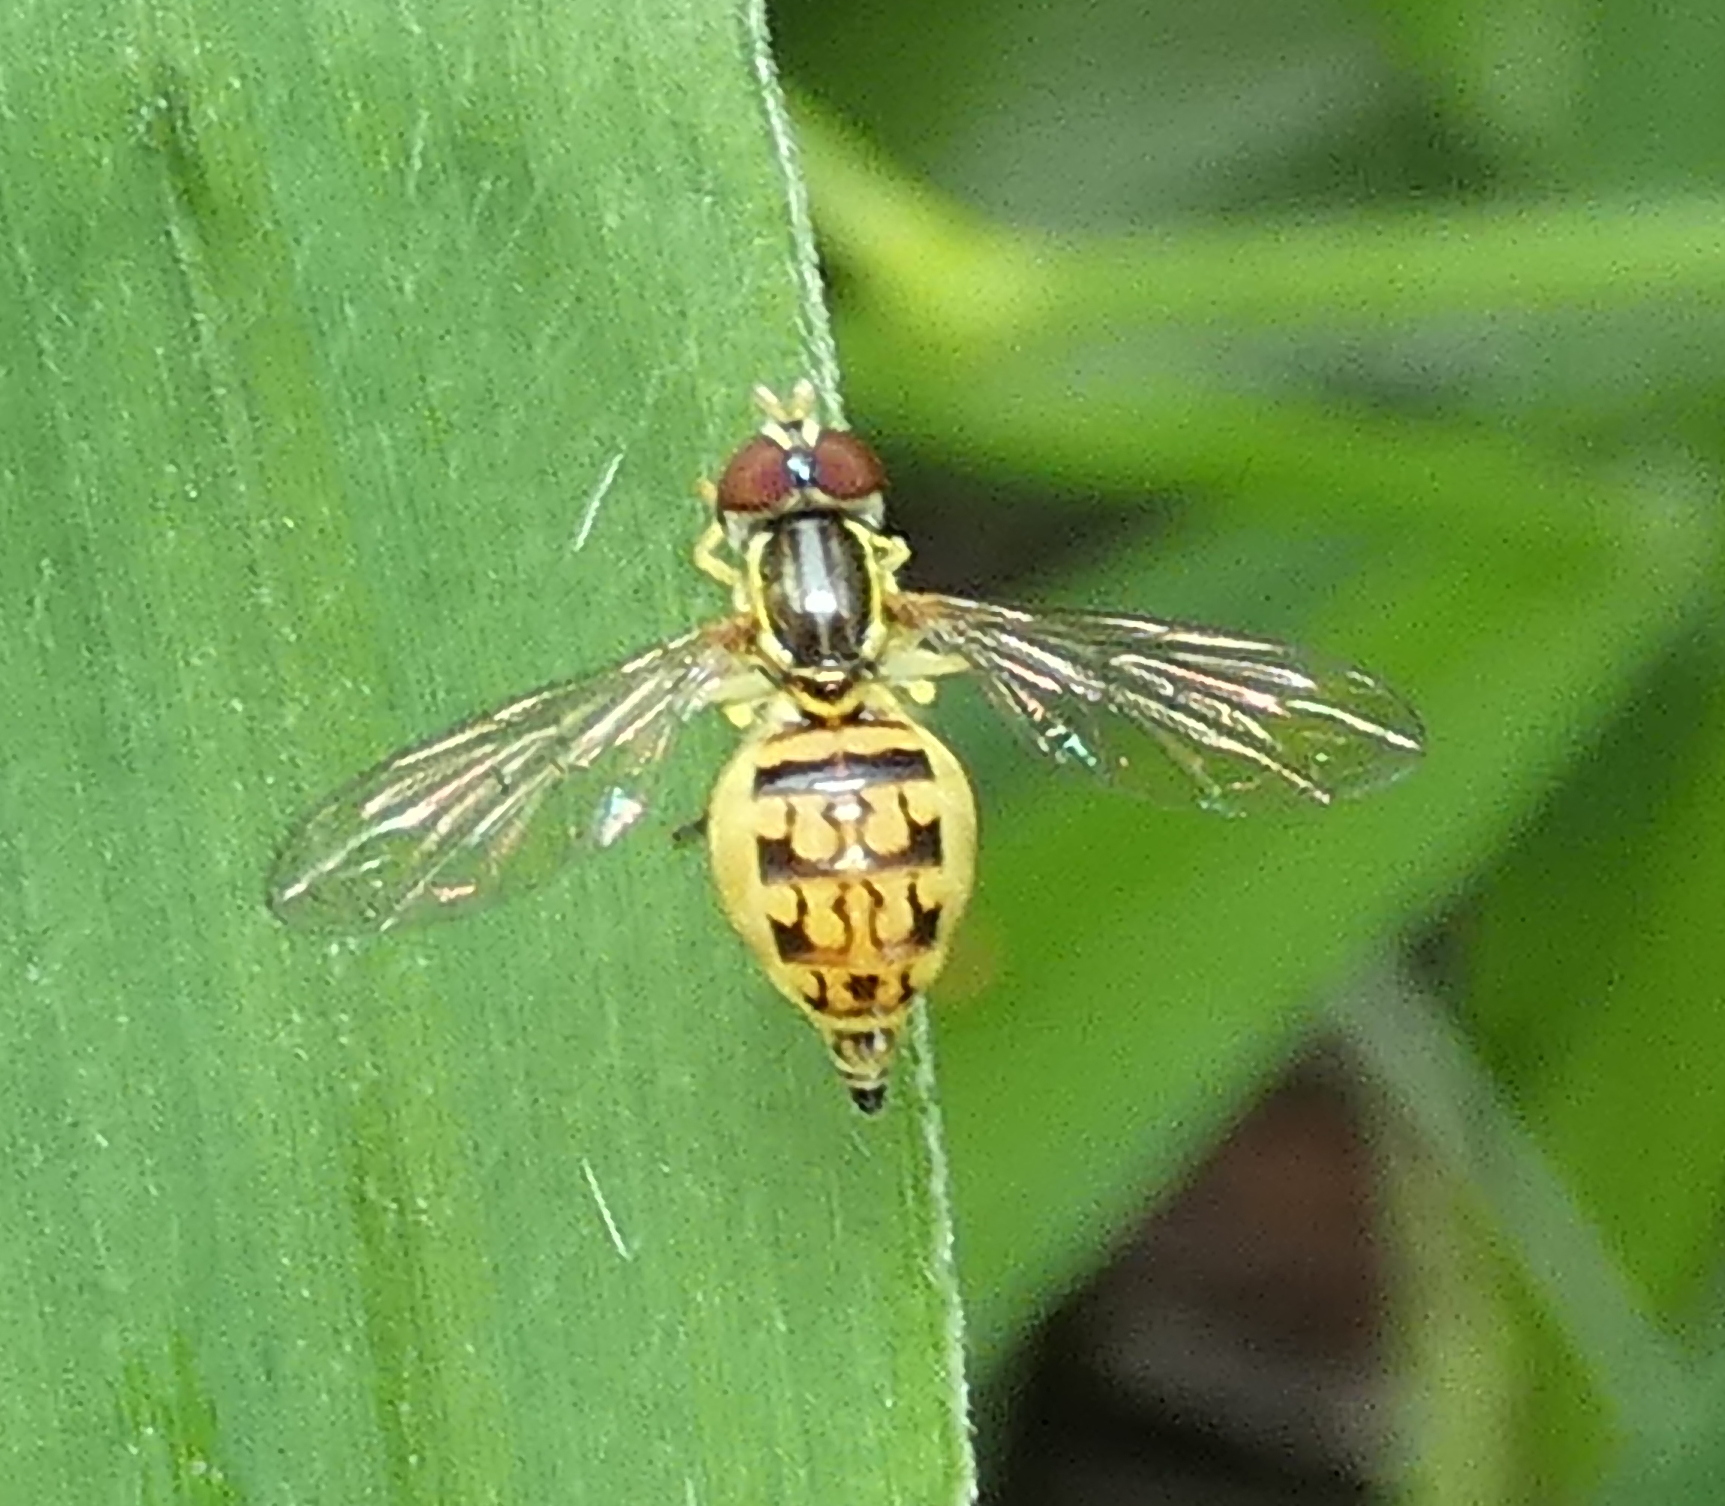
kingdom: Animalia
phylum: Arthropoda
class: Insecta
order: Diptera
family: Syrphidae
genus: Toxomerus
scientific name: Toxomerus pictus
